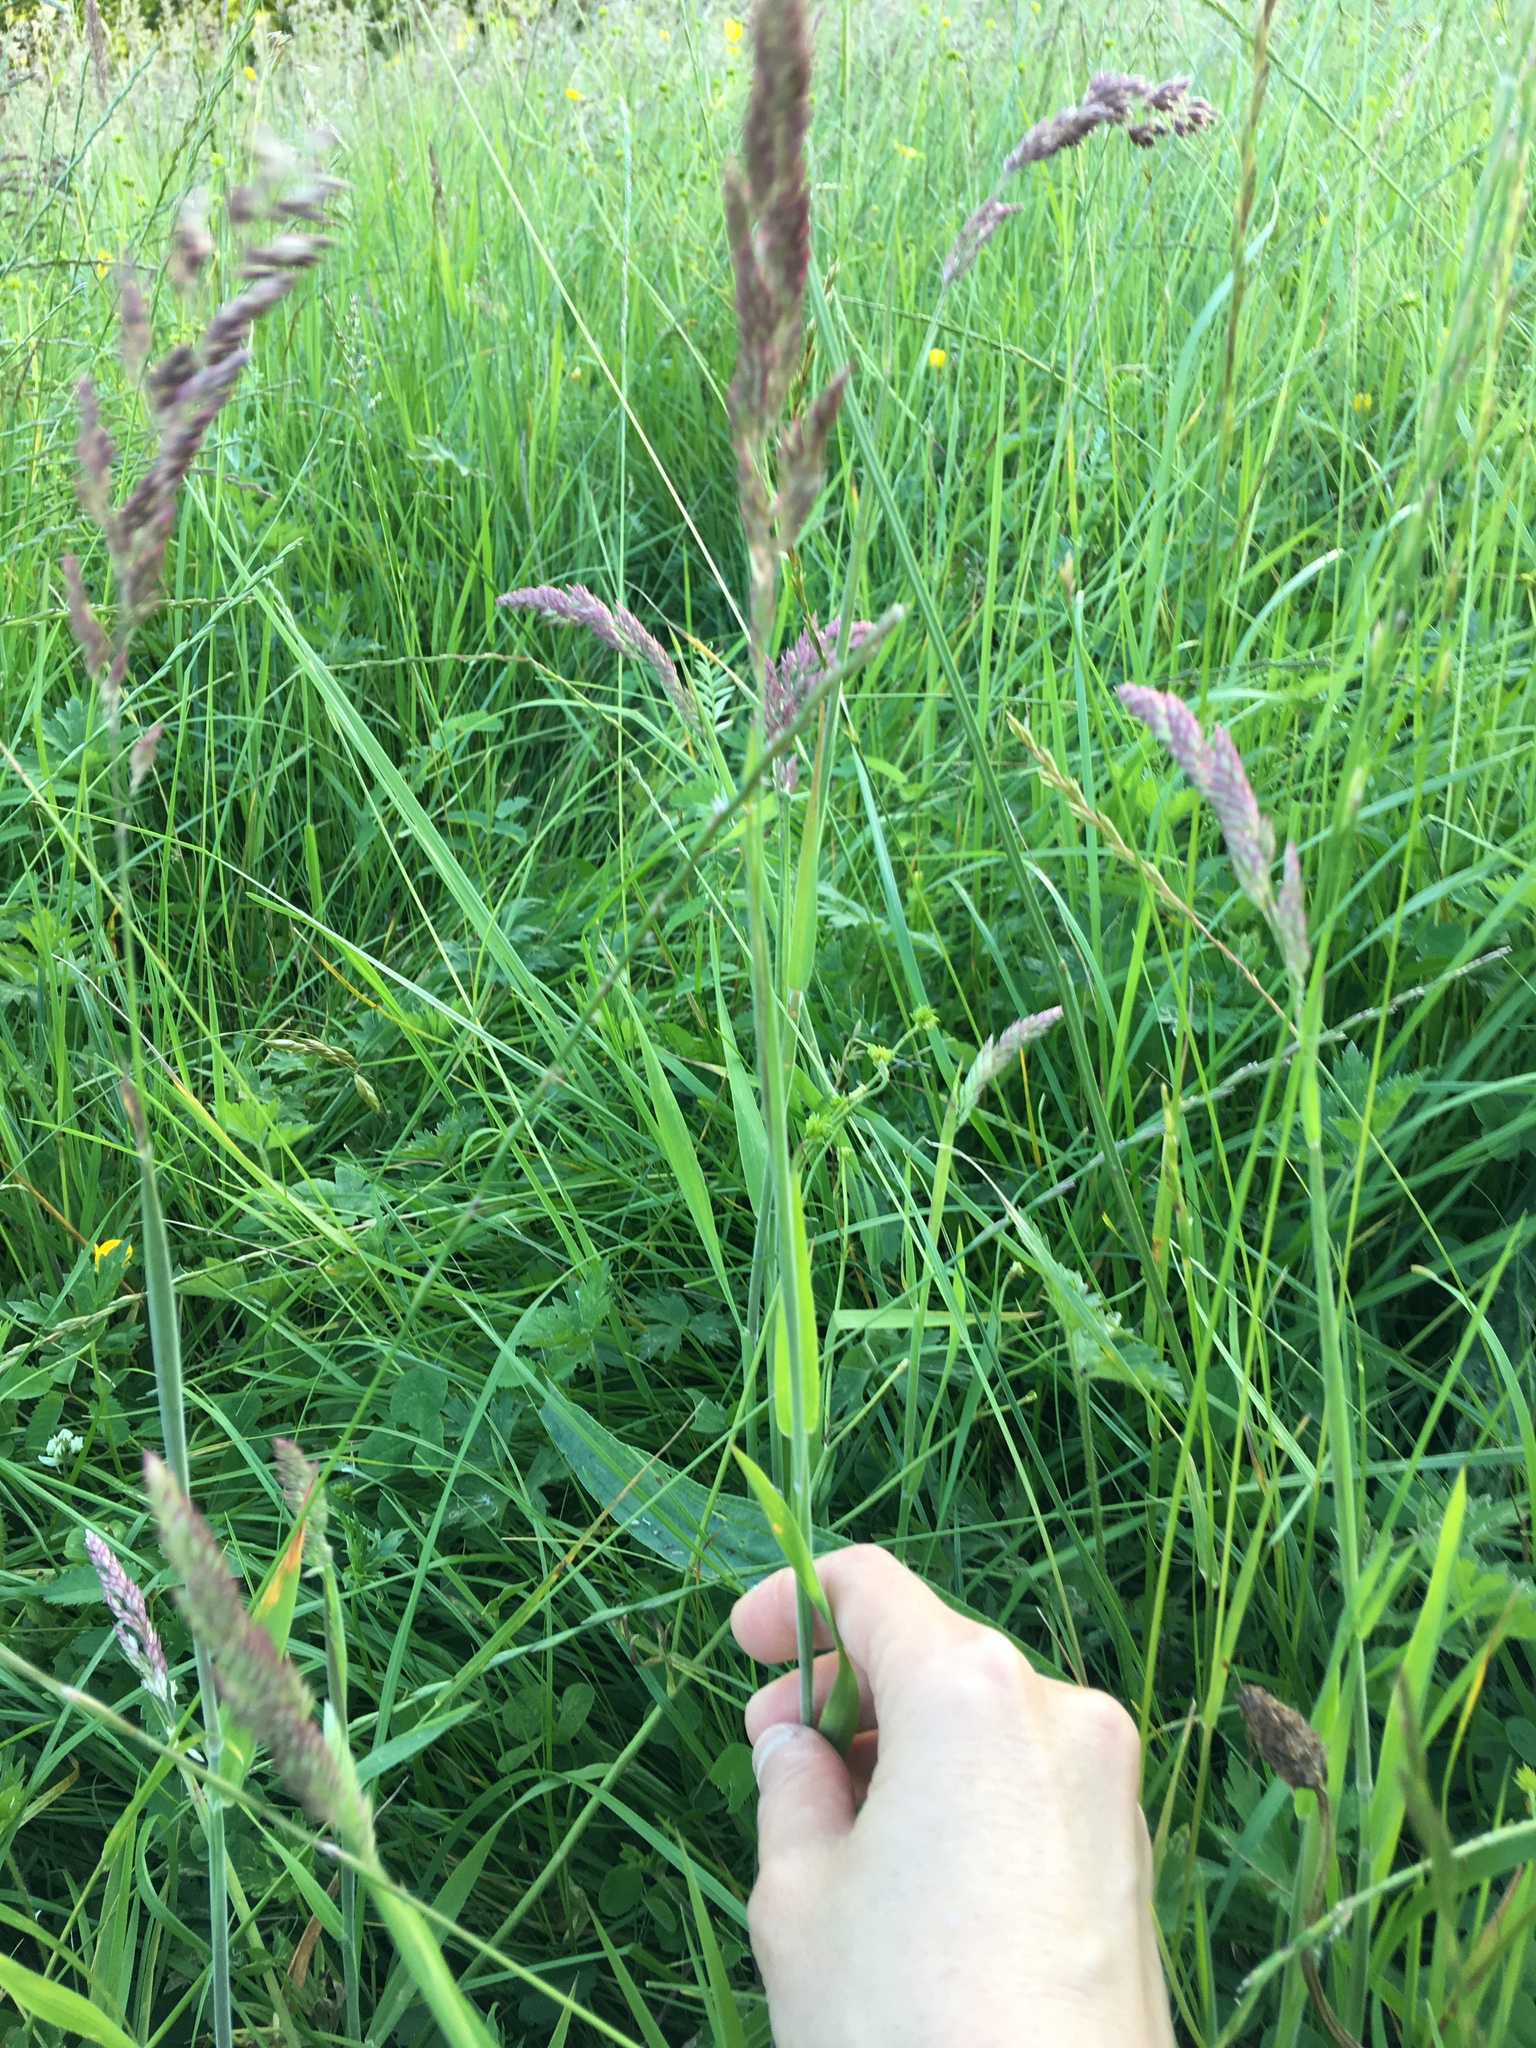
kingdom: Plantae
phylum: Tracheophyta
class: Liliopsida
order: Poales
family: Poaceae
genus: Holcus
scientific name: Holcus lanatus
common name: Yorkshire-fog
